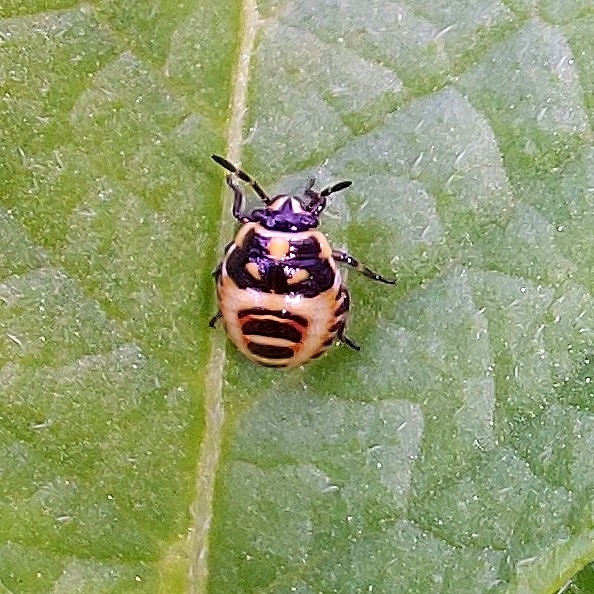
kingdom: Animalia
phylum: Arthropoda
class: Insecta
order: Hemiptera
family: Pentatomidae
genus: Eurydema
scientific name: Eurydema oleracea
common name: Cabbage bug
